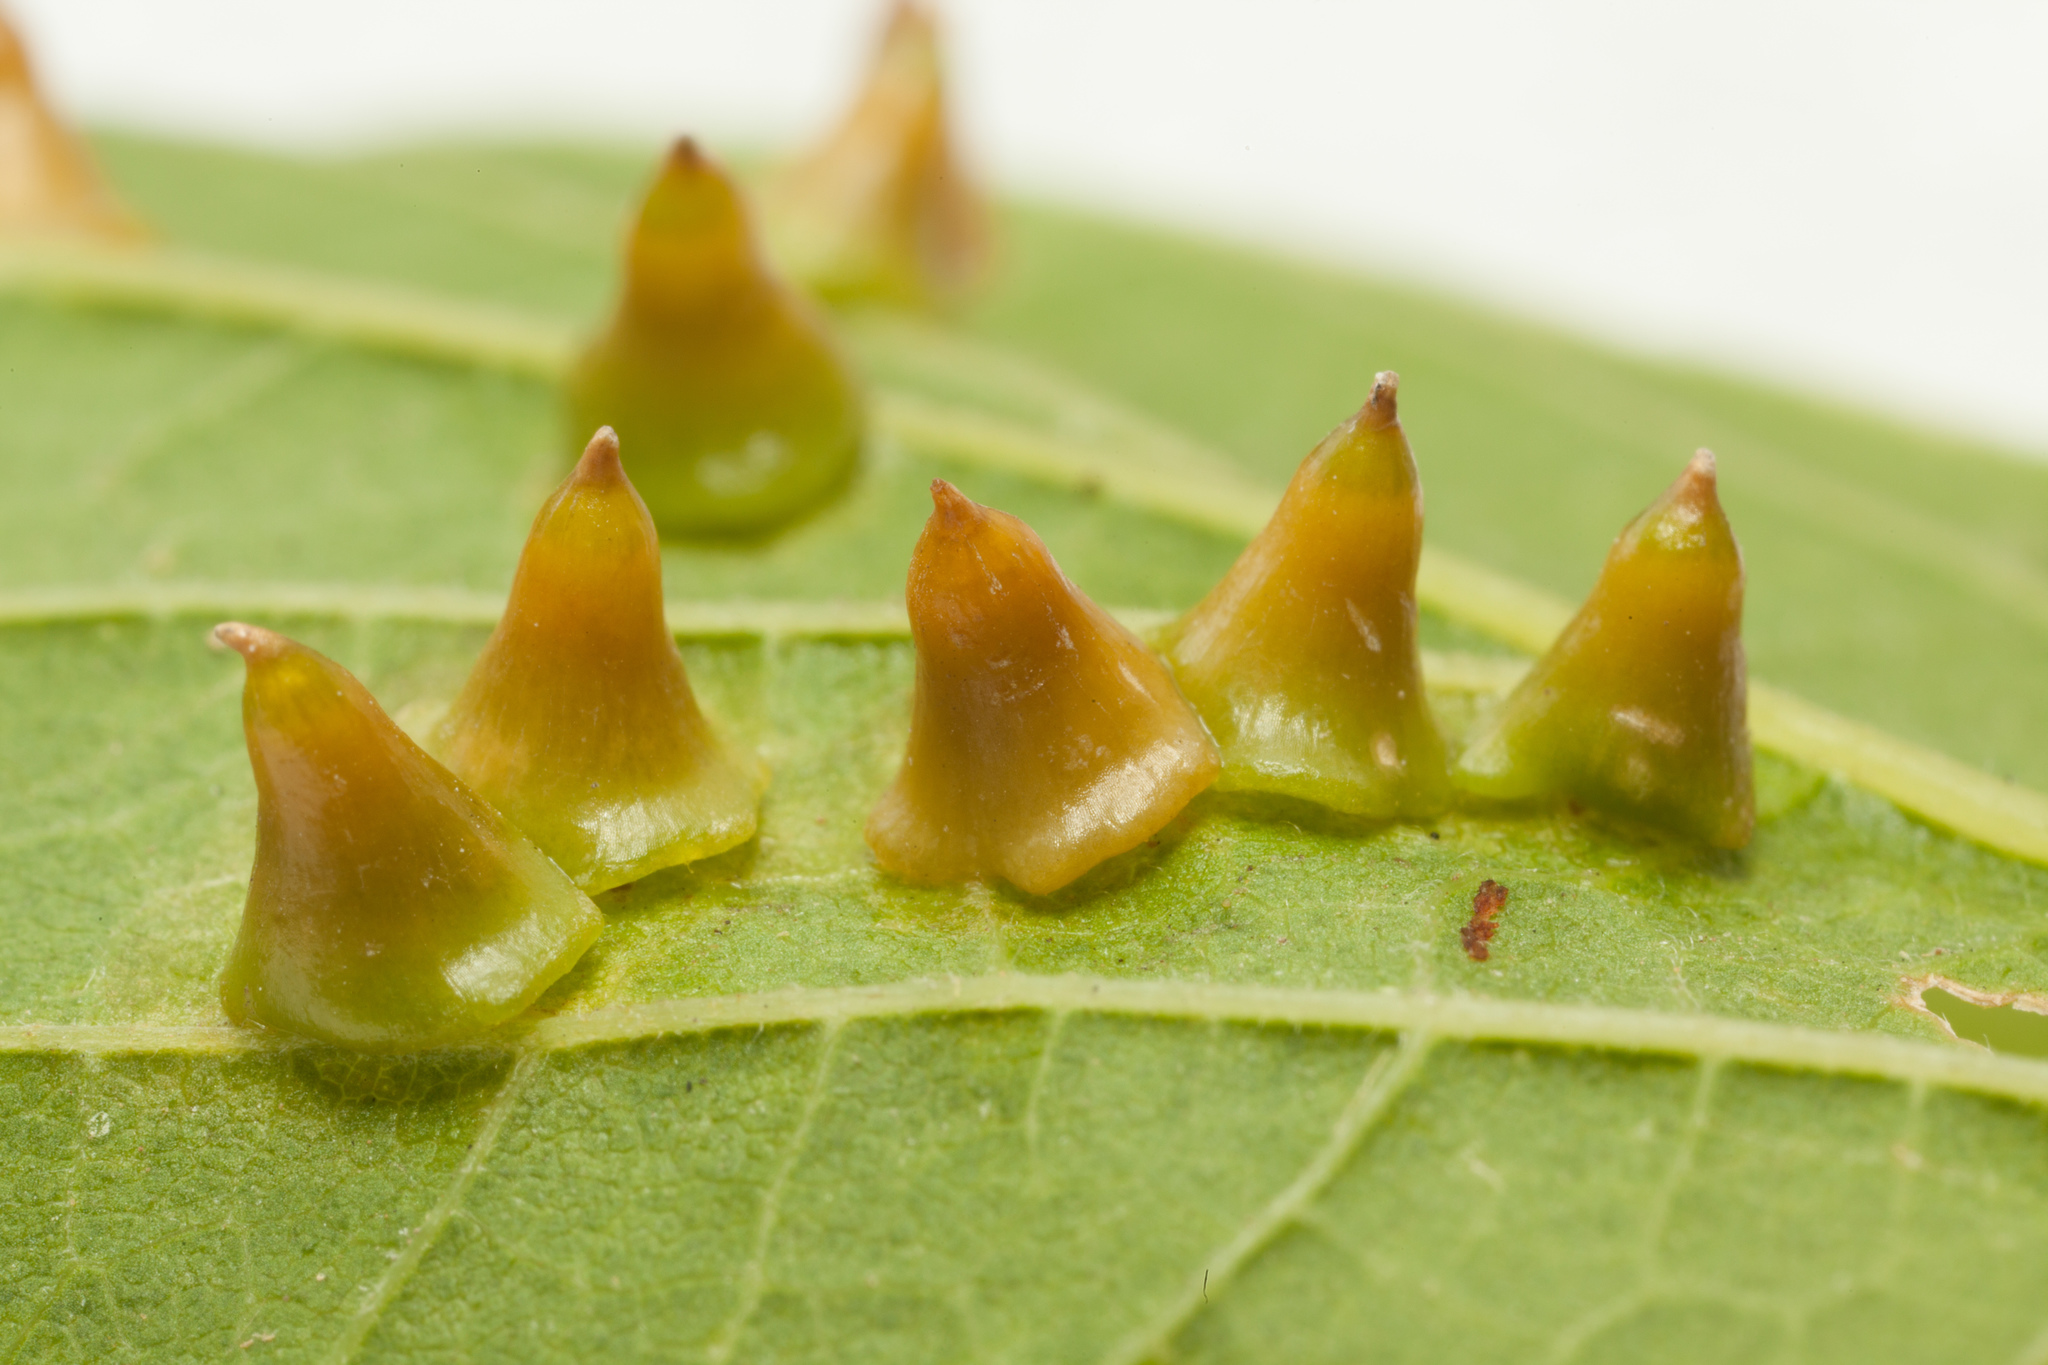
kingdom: Animalia
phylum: Arthropoda
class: Insecta
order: Diptera
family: Cecidomyiidae
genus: Celticecis
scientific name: Celticecis spiniformis
